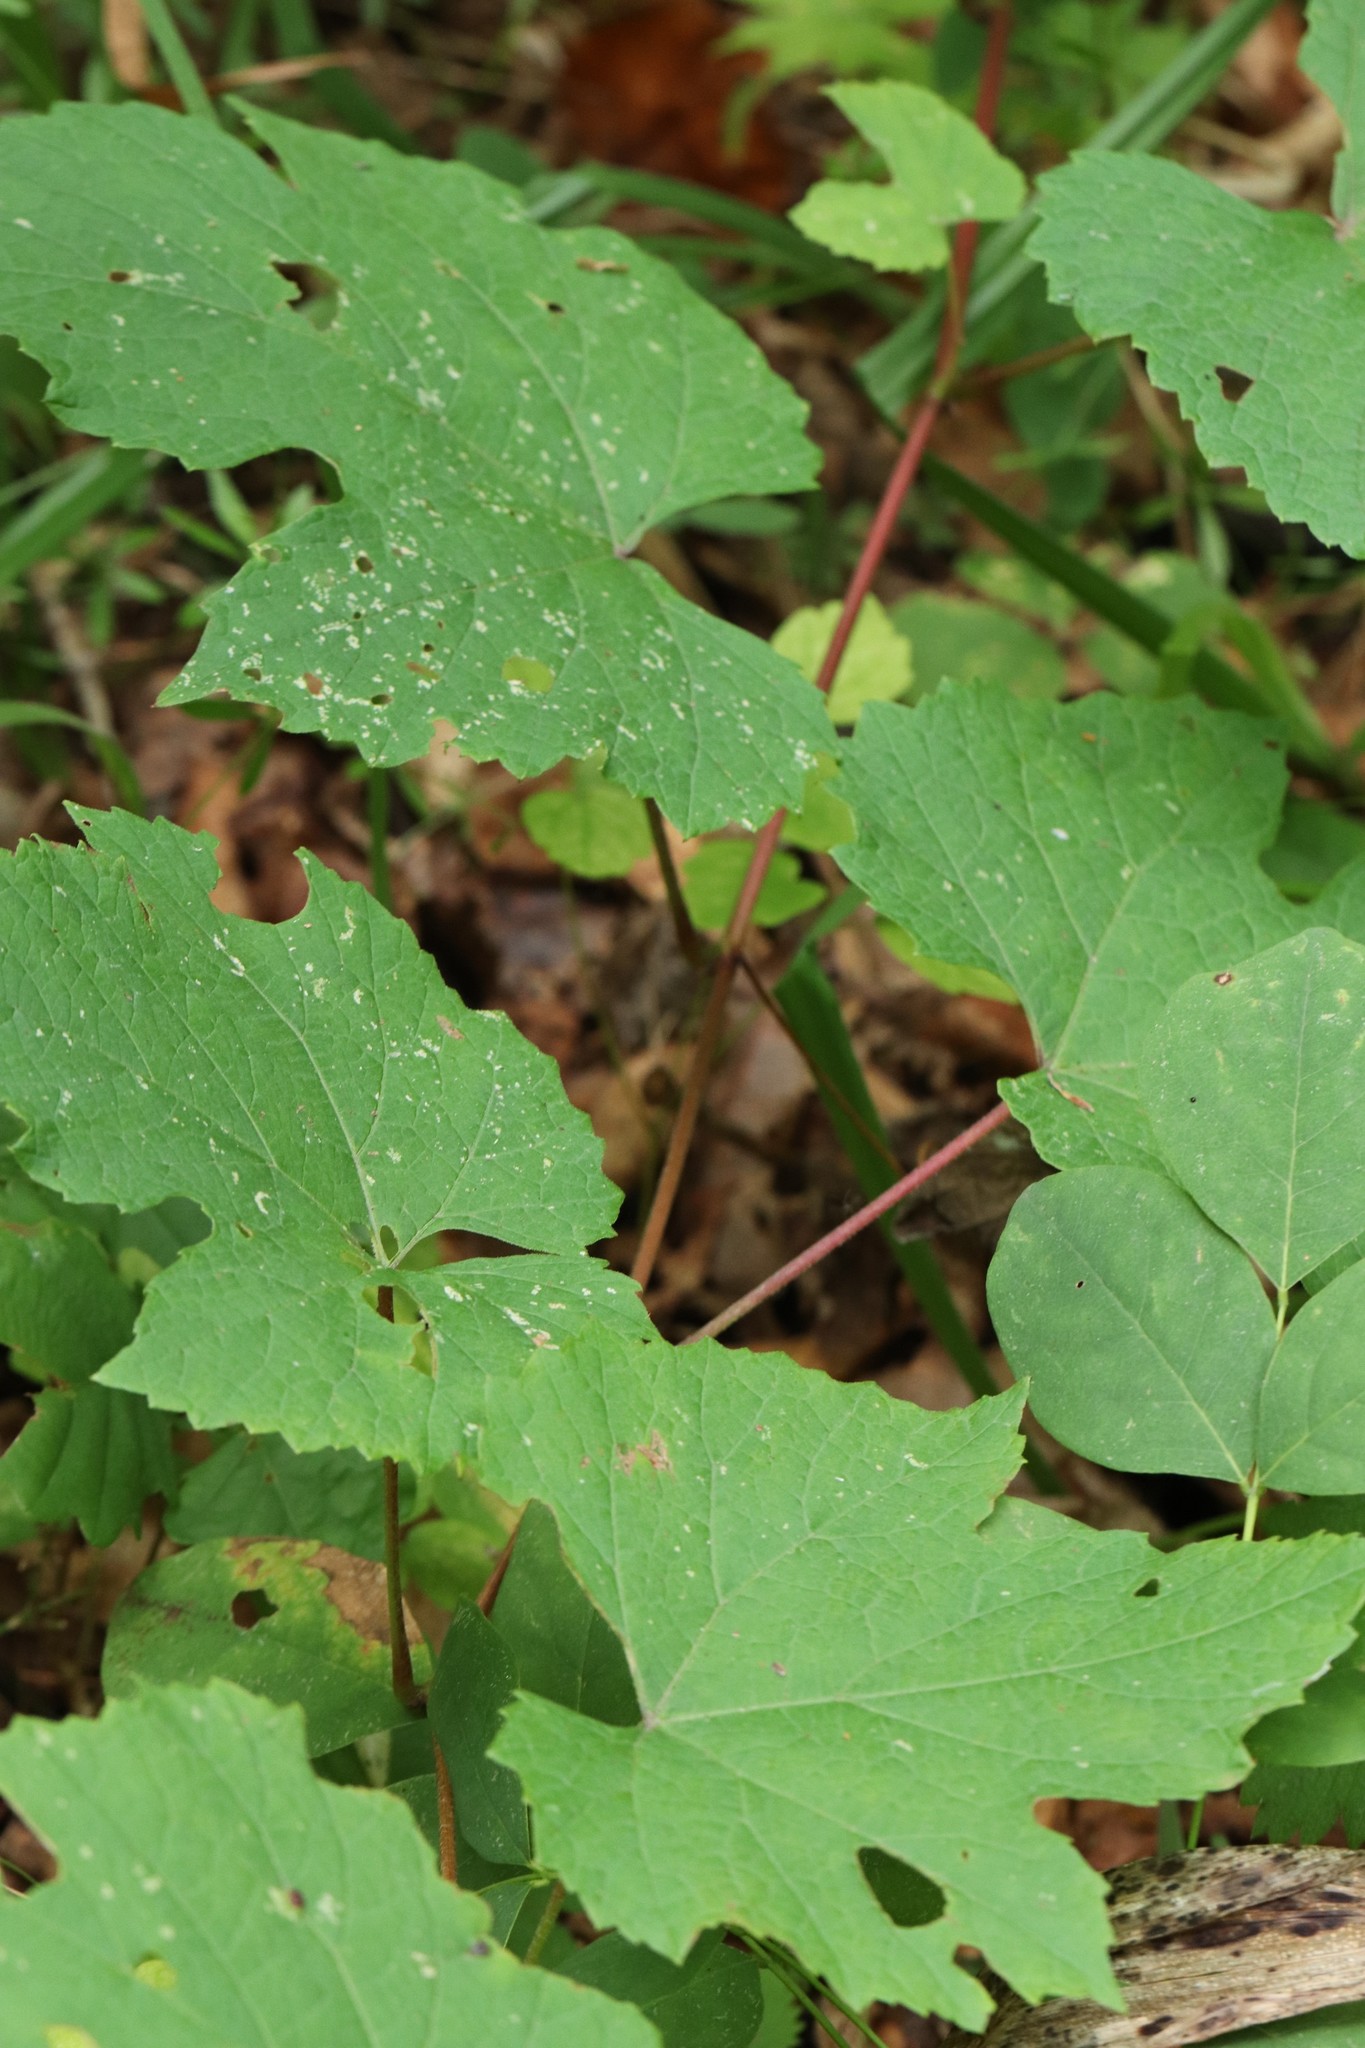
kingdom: Plantae
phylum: Tracheophyta
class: Magnoliopsida
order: Vitales
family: Vitaceae
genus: Vitis
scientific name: Vitis amurensis
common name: Amur grape
